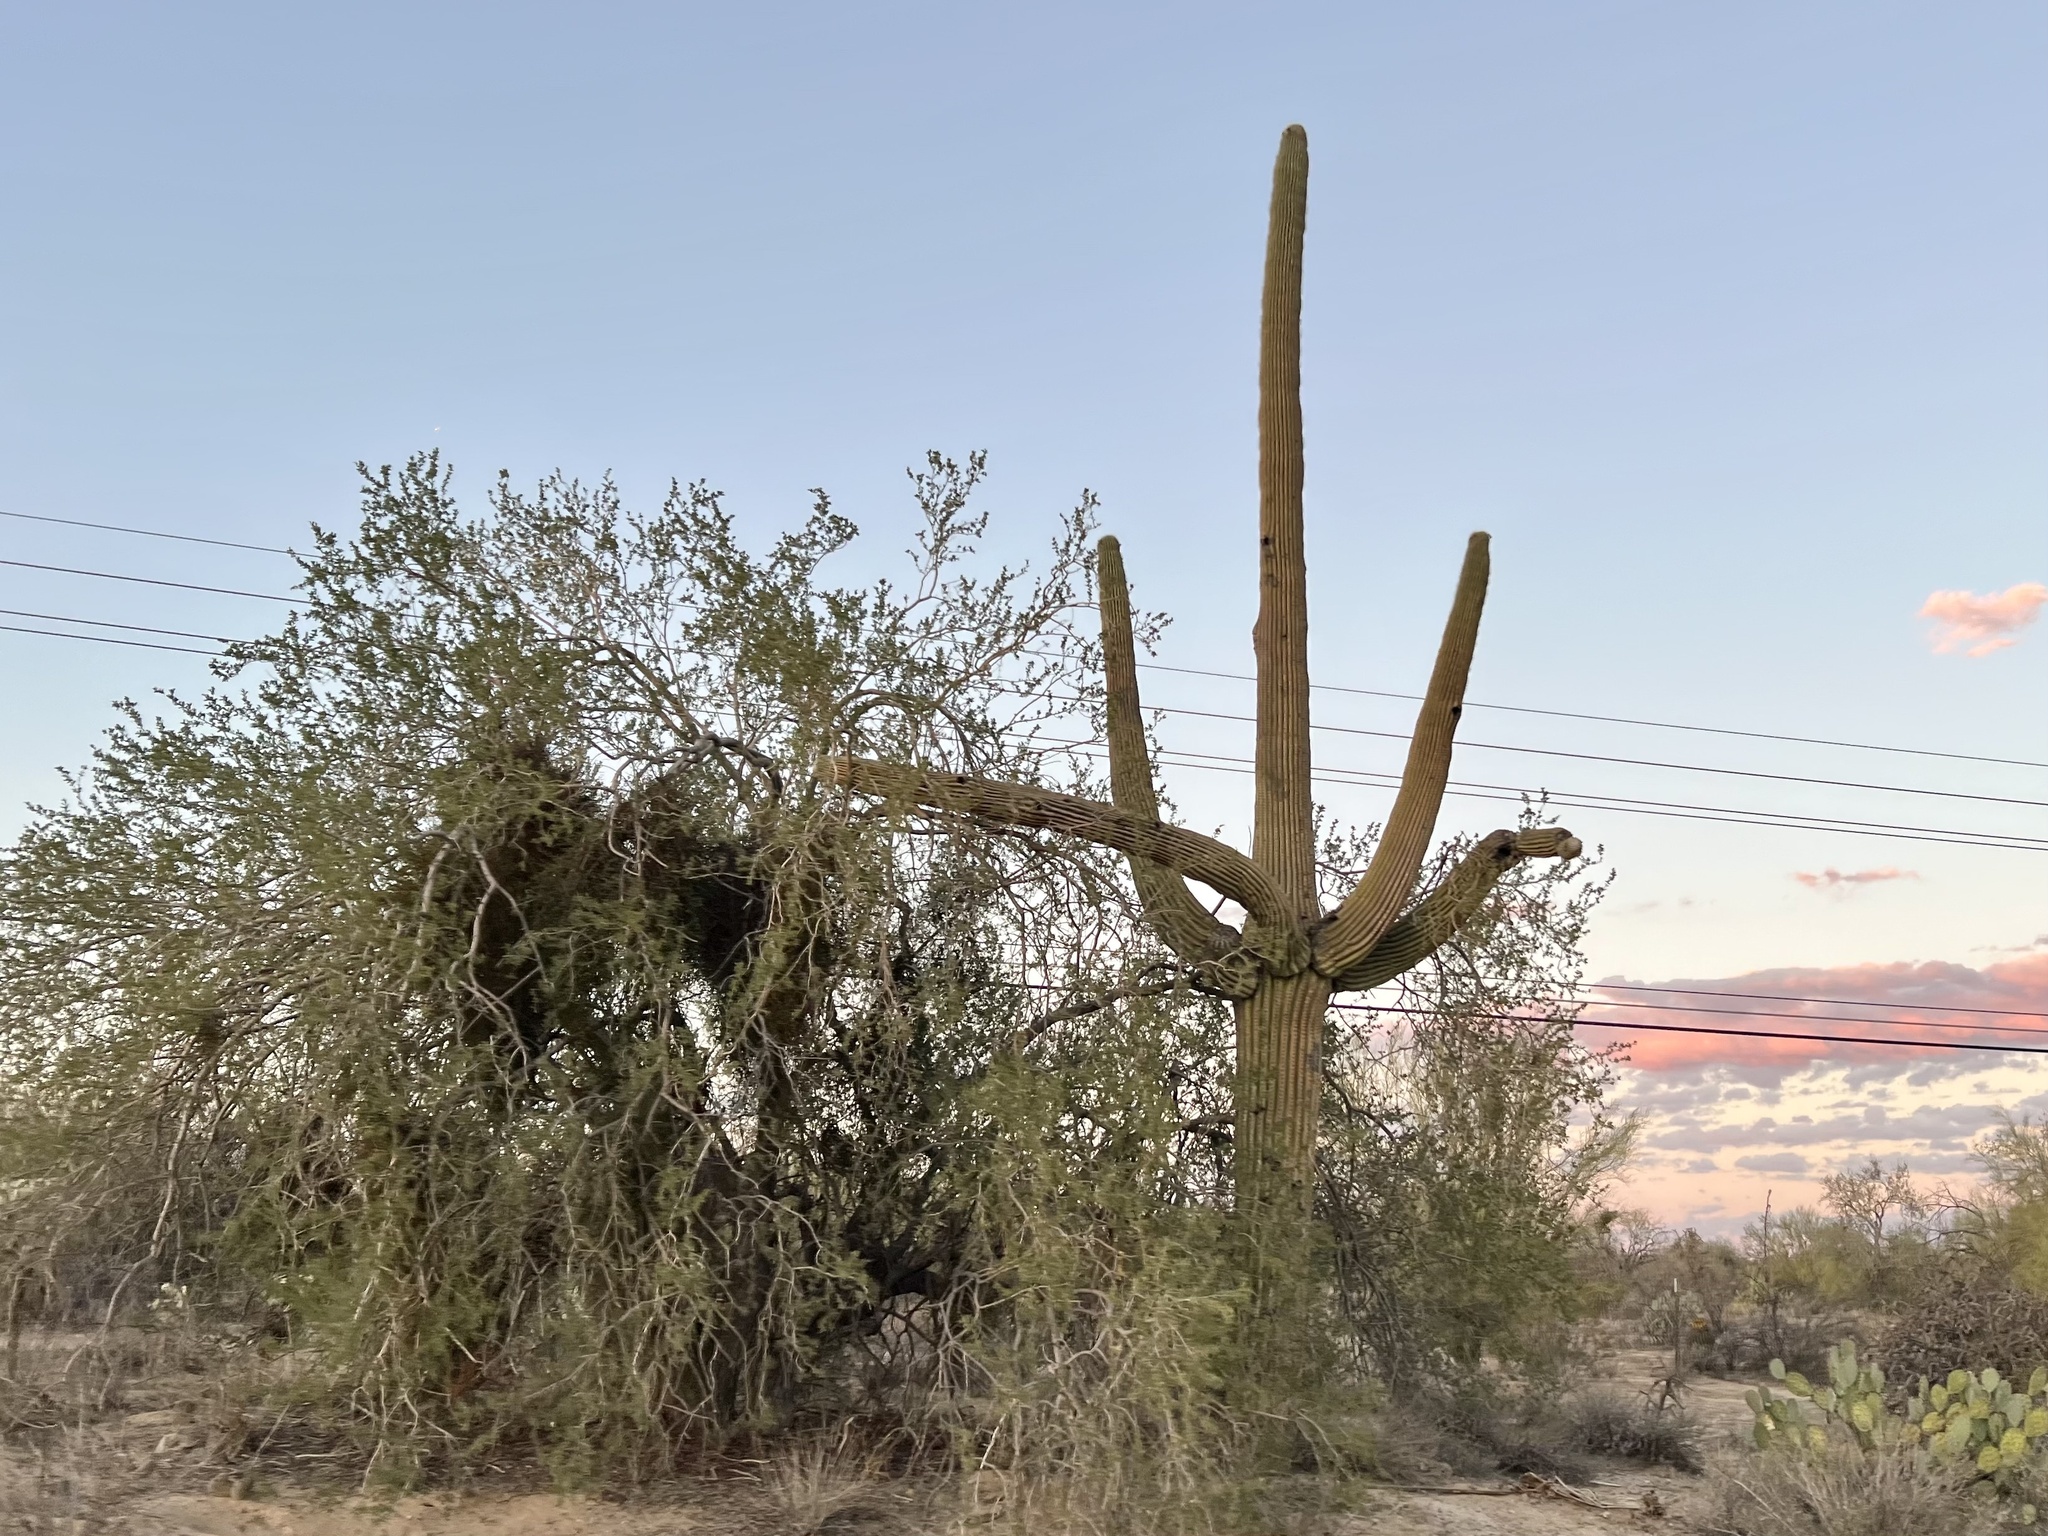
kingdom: Plantae
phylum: Tracheophyta
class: Magnoliopsida
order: Caryophyllales
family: Cactaceae
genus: Carnegiea
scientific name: Carnegiea gigantea
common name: Saguaro
